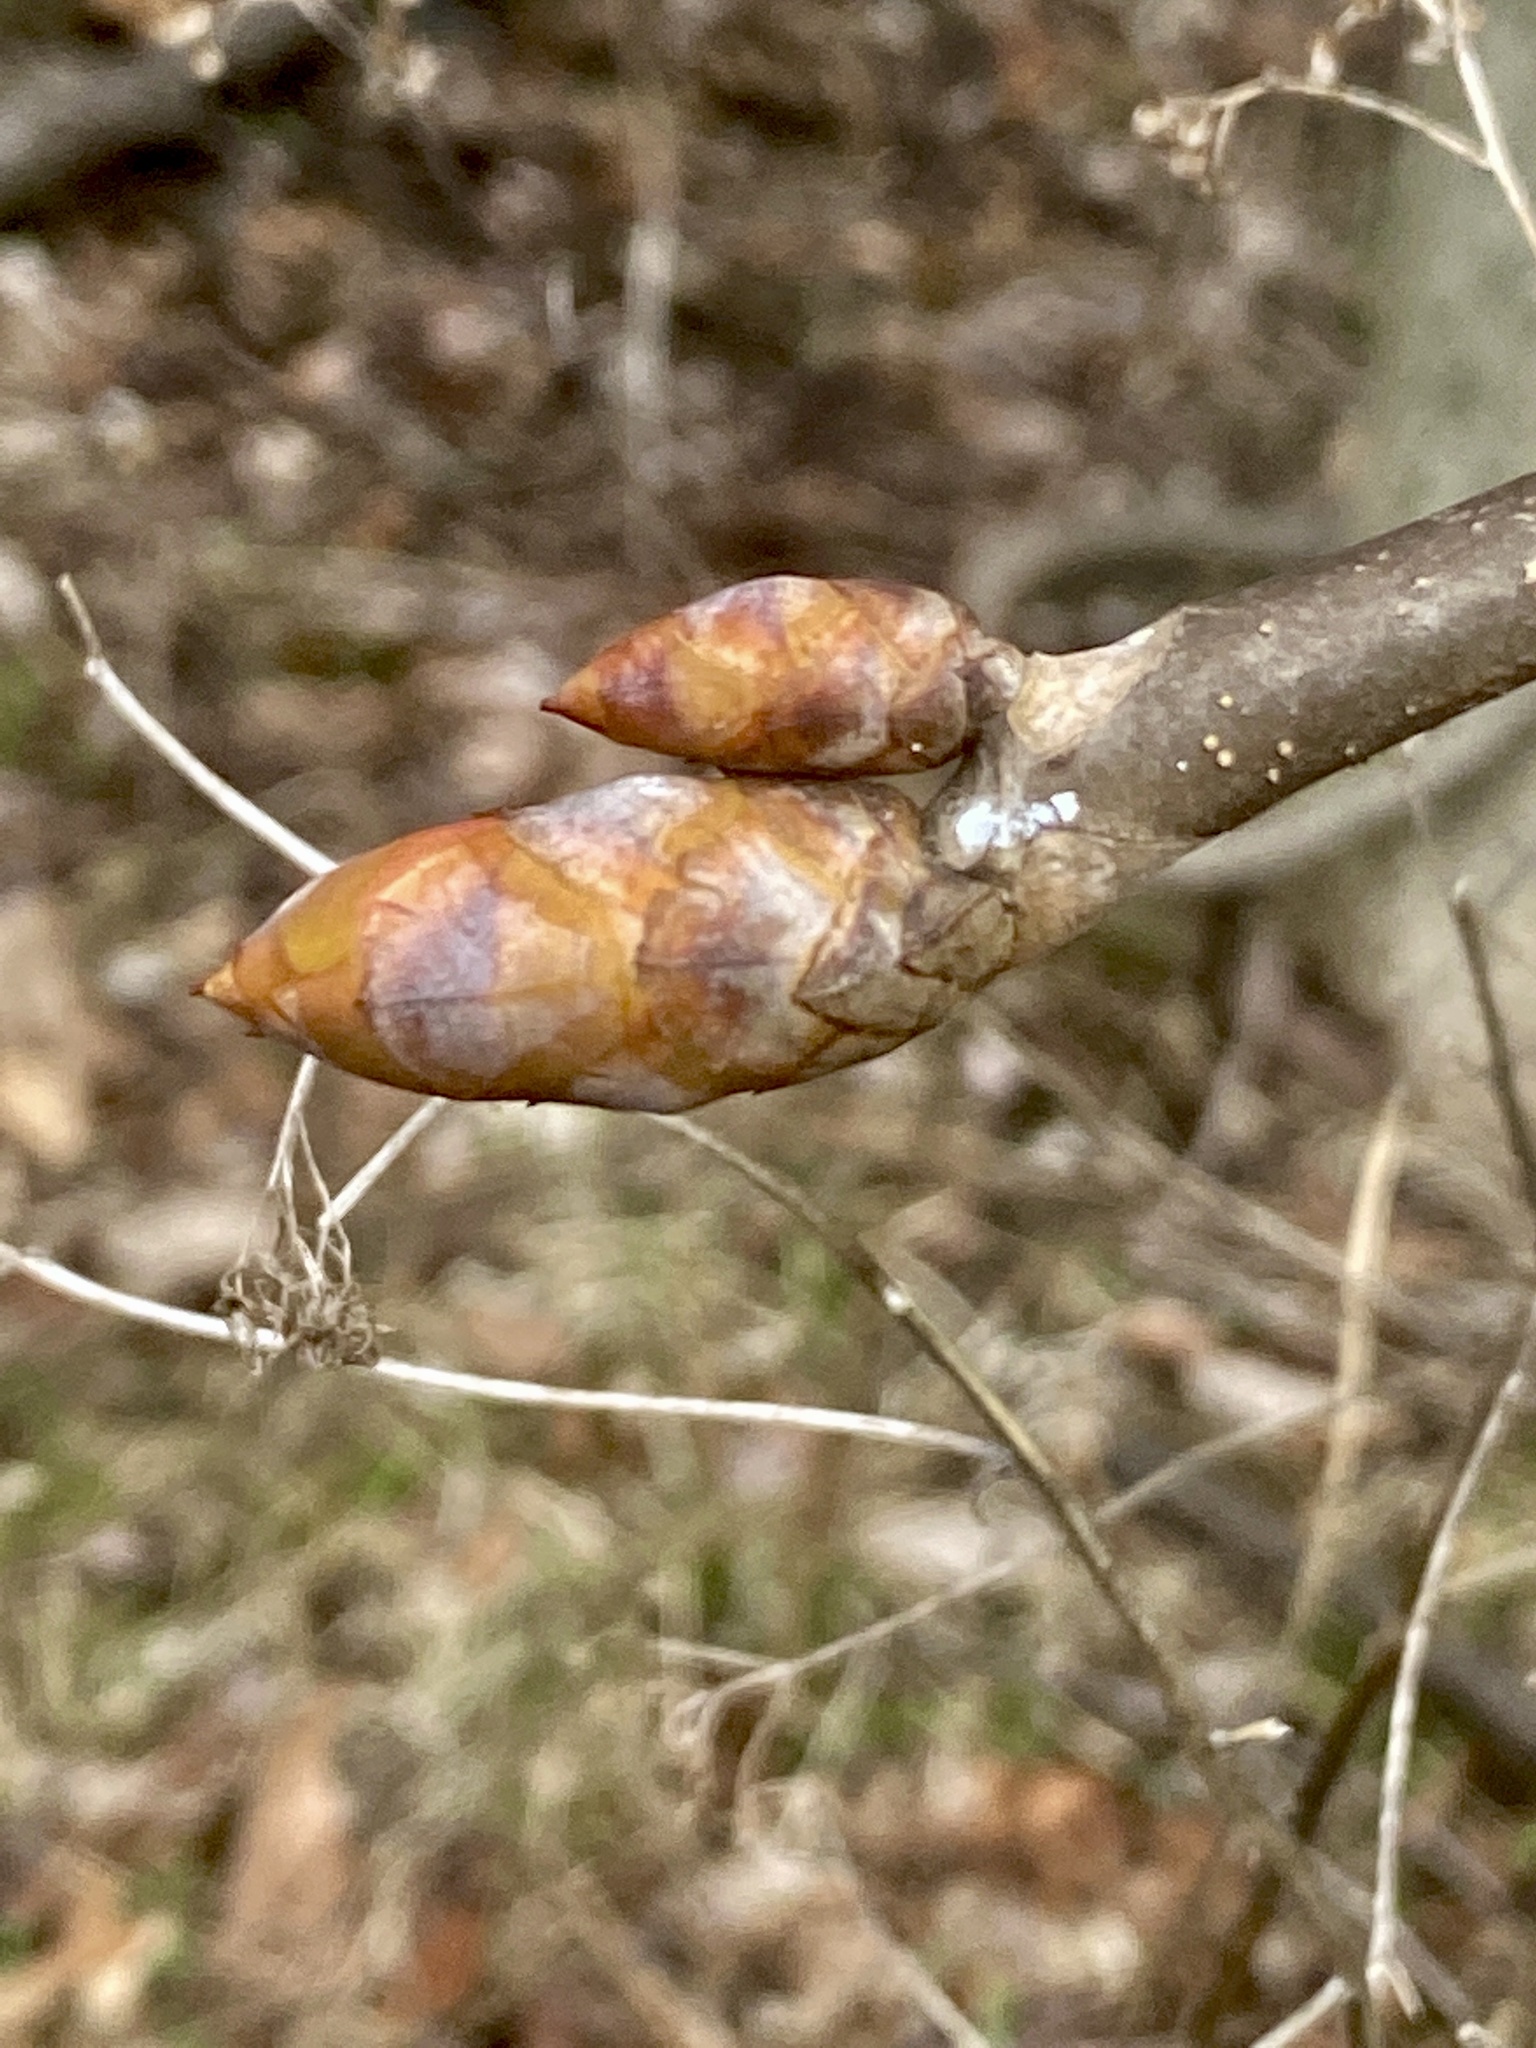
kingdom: Plantae
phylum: Tracheophyta
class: Magnoliopsida
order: Sapindales
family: Sapindaceae
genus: Aesculus
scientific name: Aesculus flava
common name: Yellow buckeye
